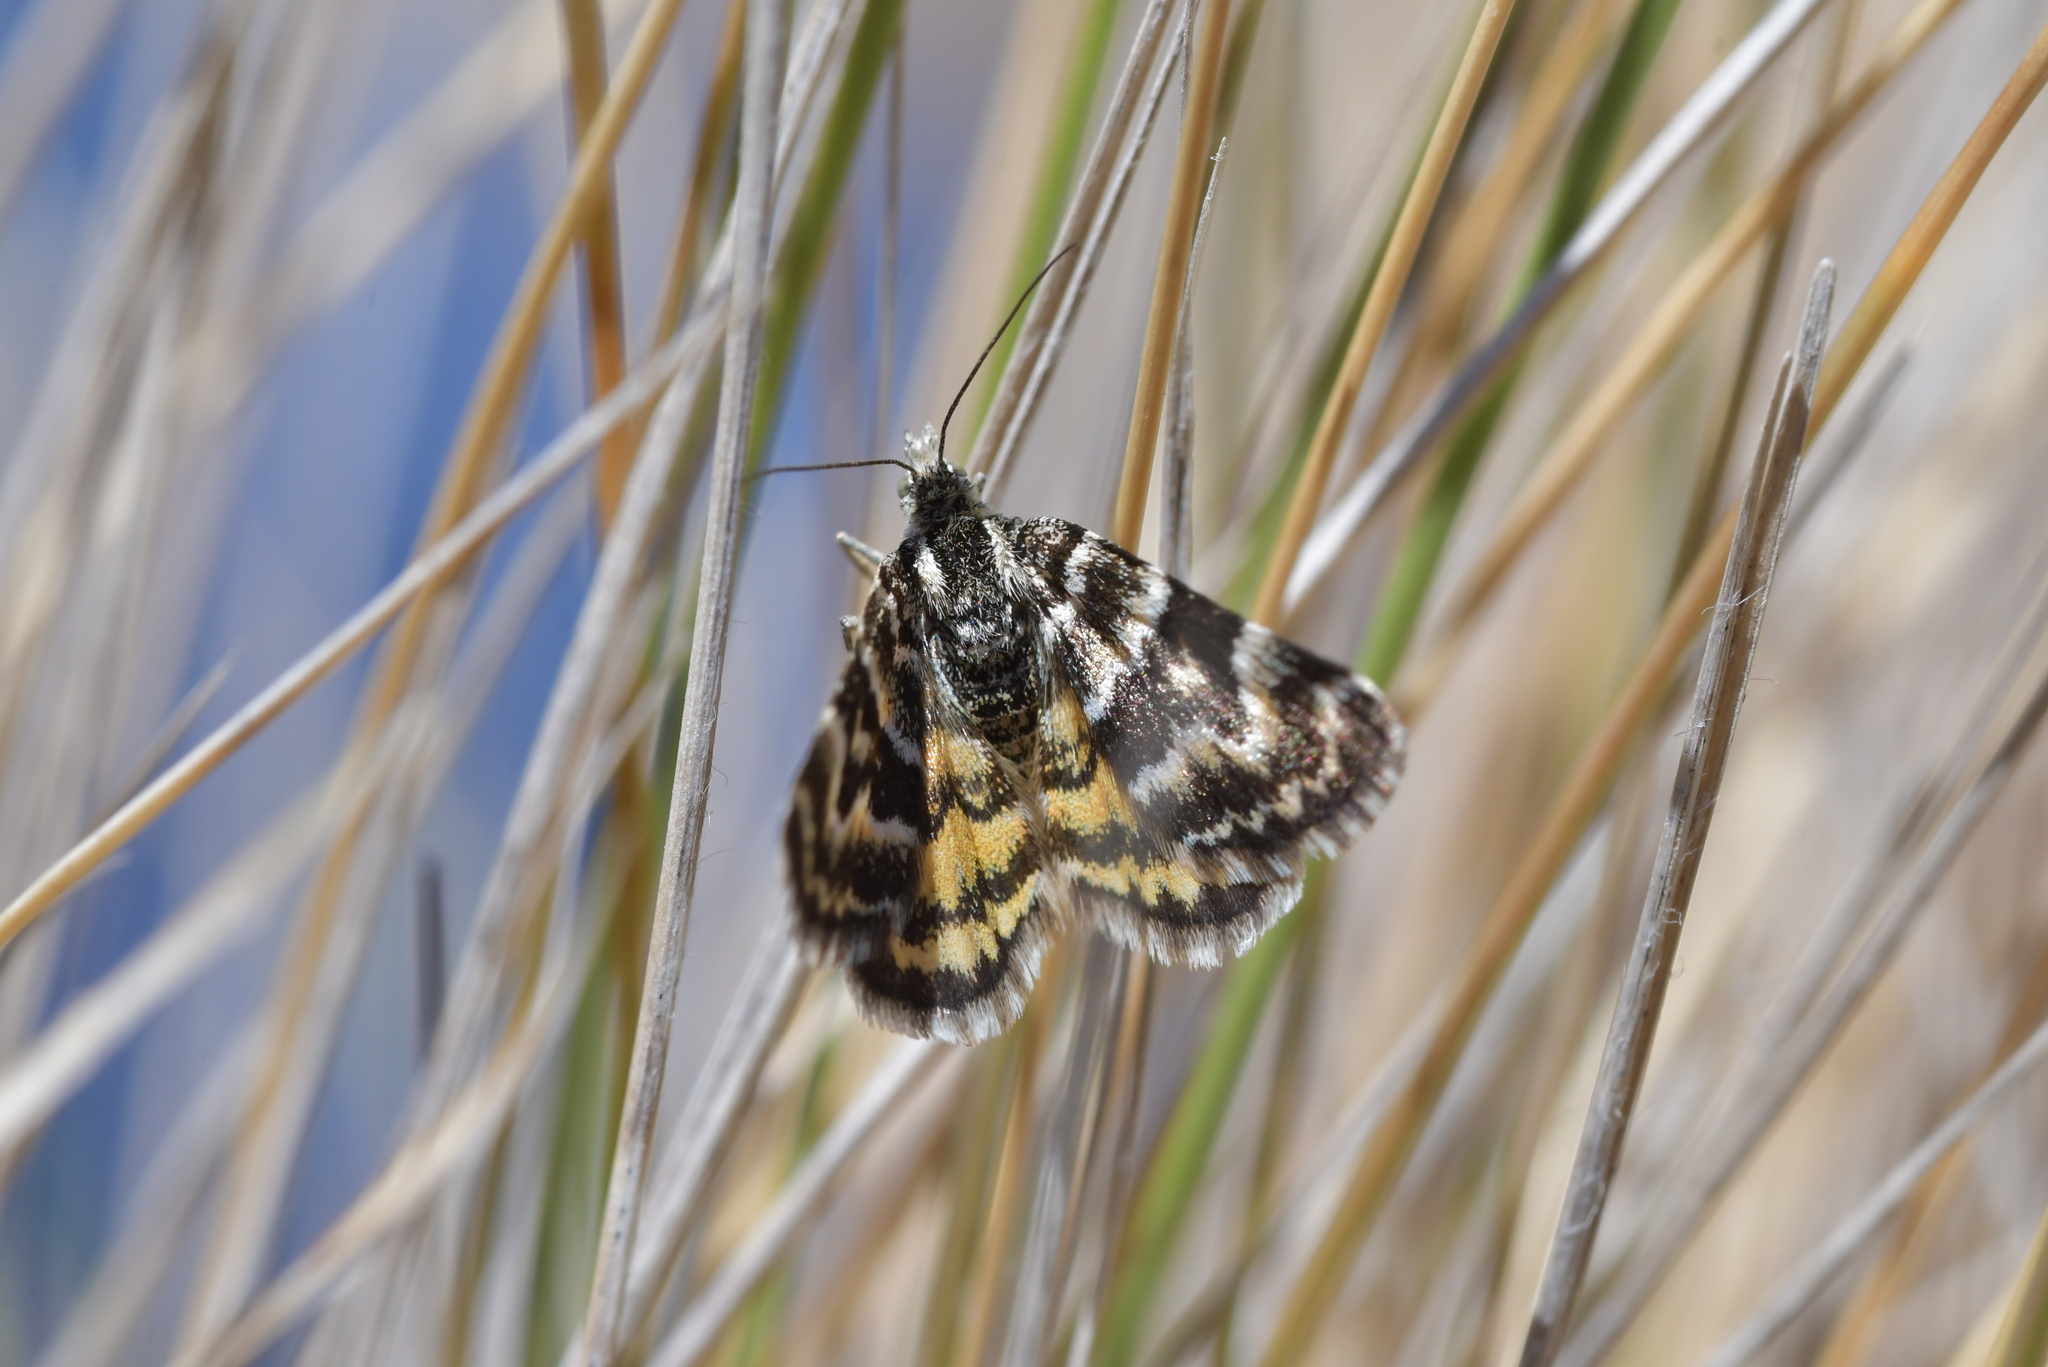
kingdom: Animalia
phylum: Arthropoda
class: Insecta
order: Lepidoptera
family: Geometridae
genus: Notoreas
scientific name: Notoreas perornata
